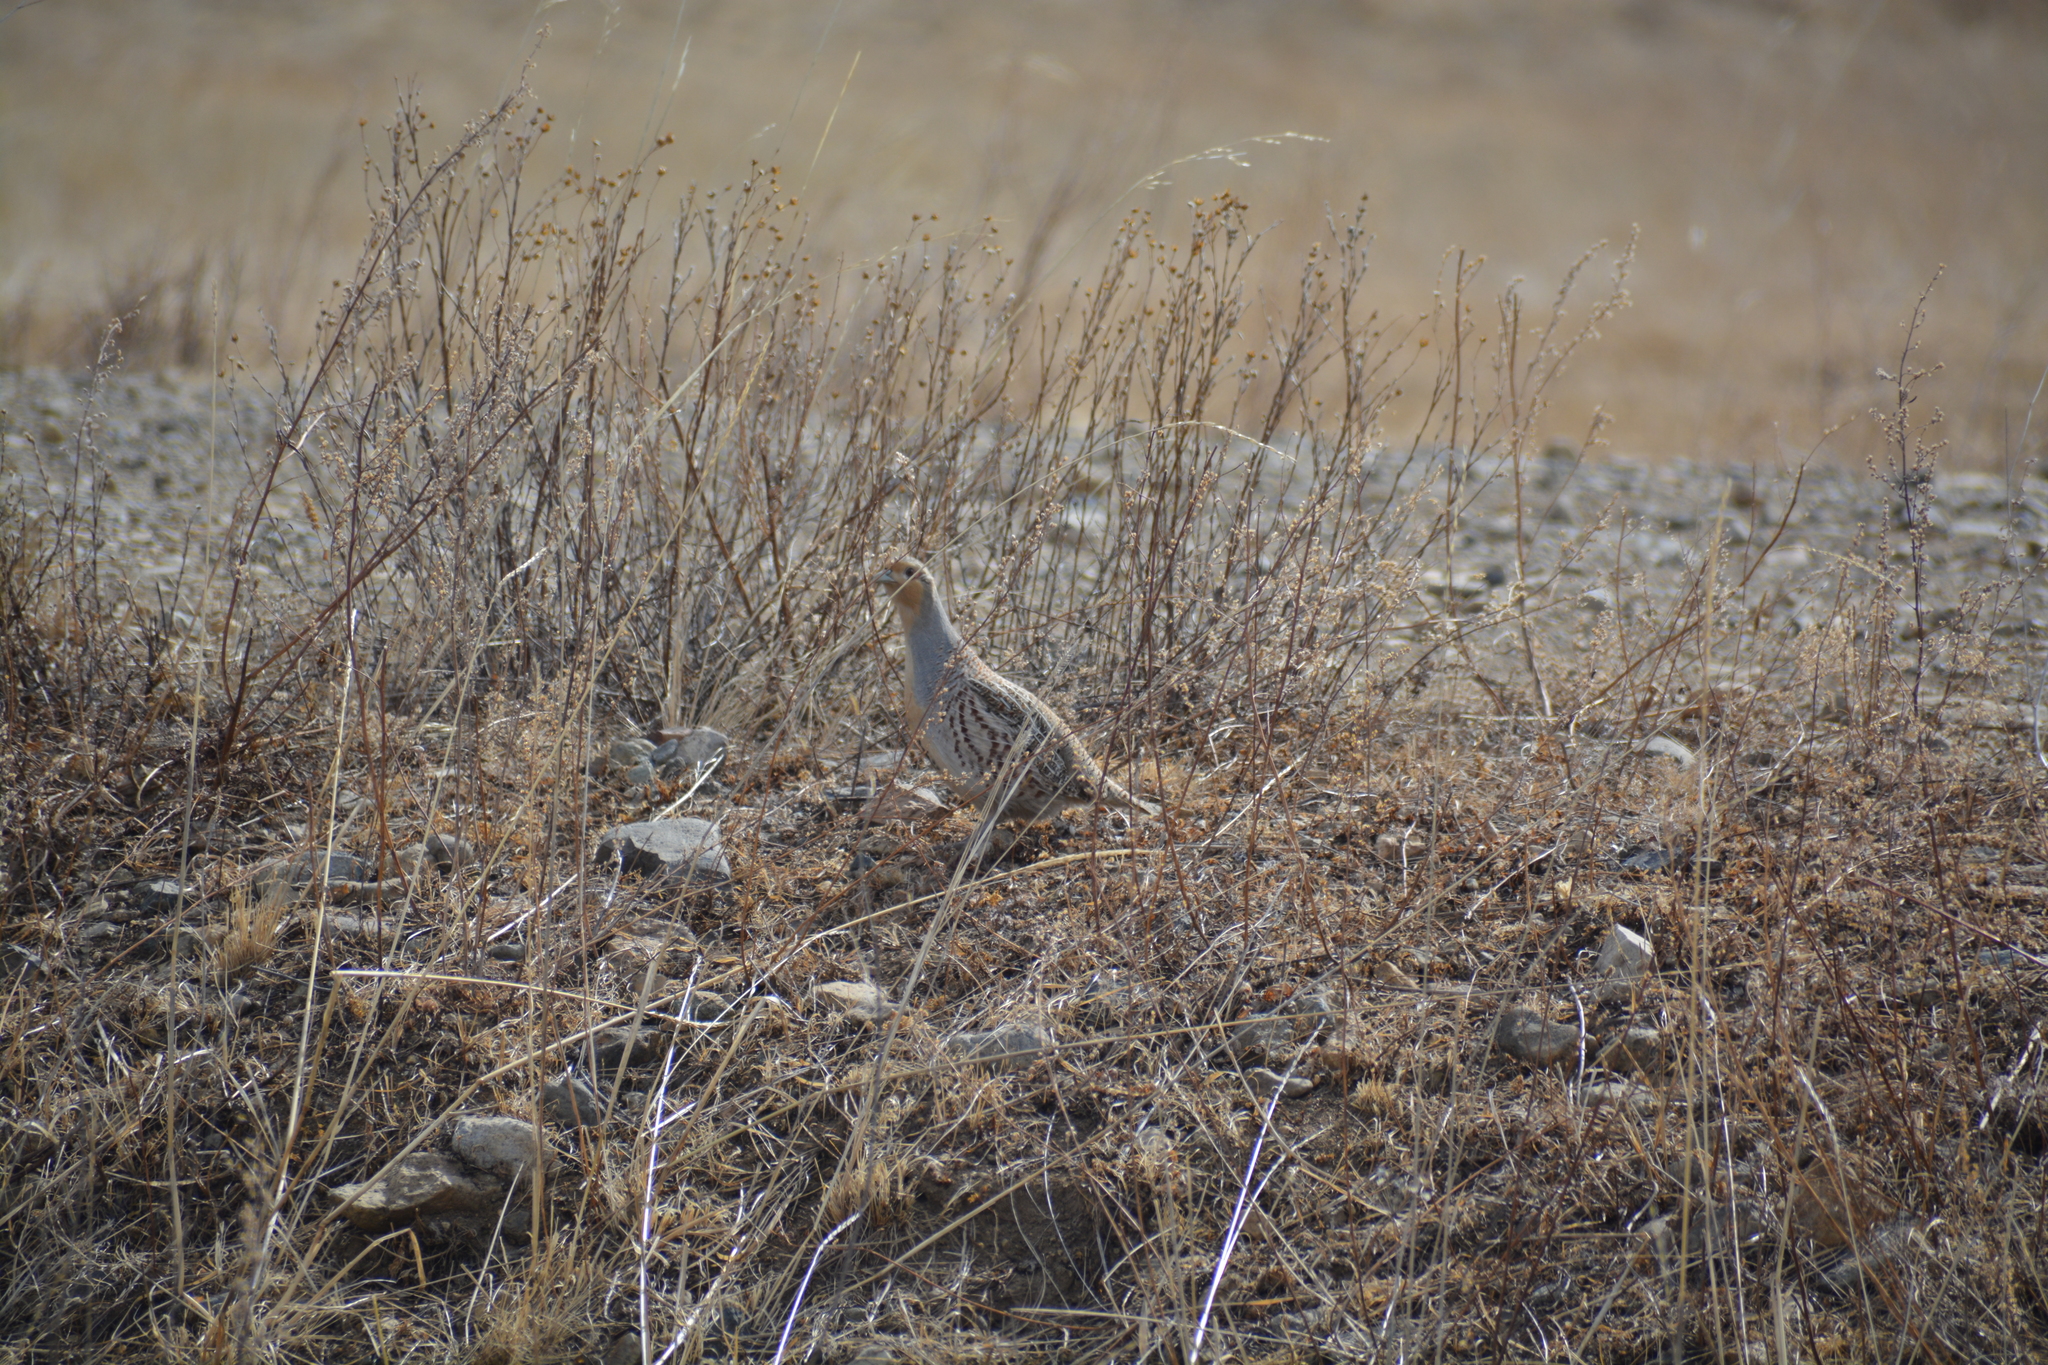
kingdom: Animalia
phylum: Chordata
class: Aves
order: Galliformes
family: Phasianidae
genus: Perdix
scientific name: Perdix dauurica
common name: Daurian partridge
